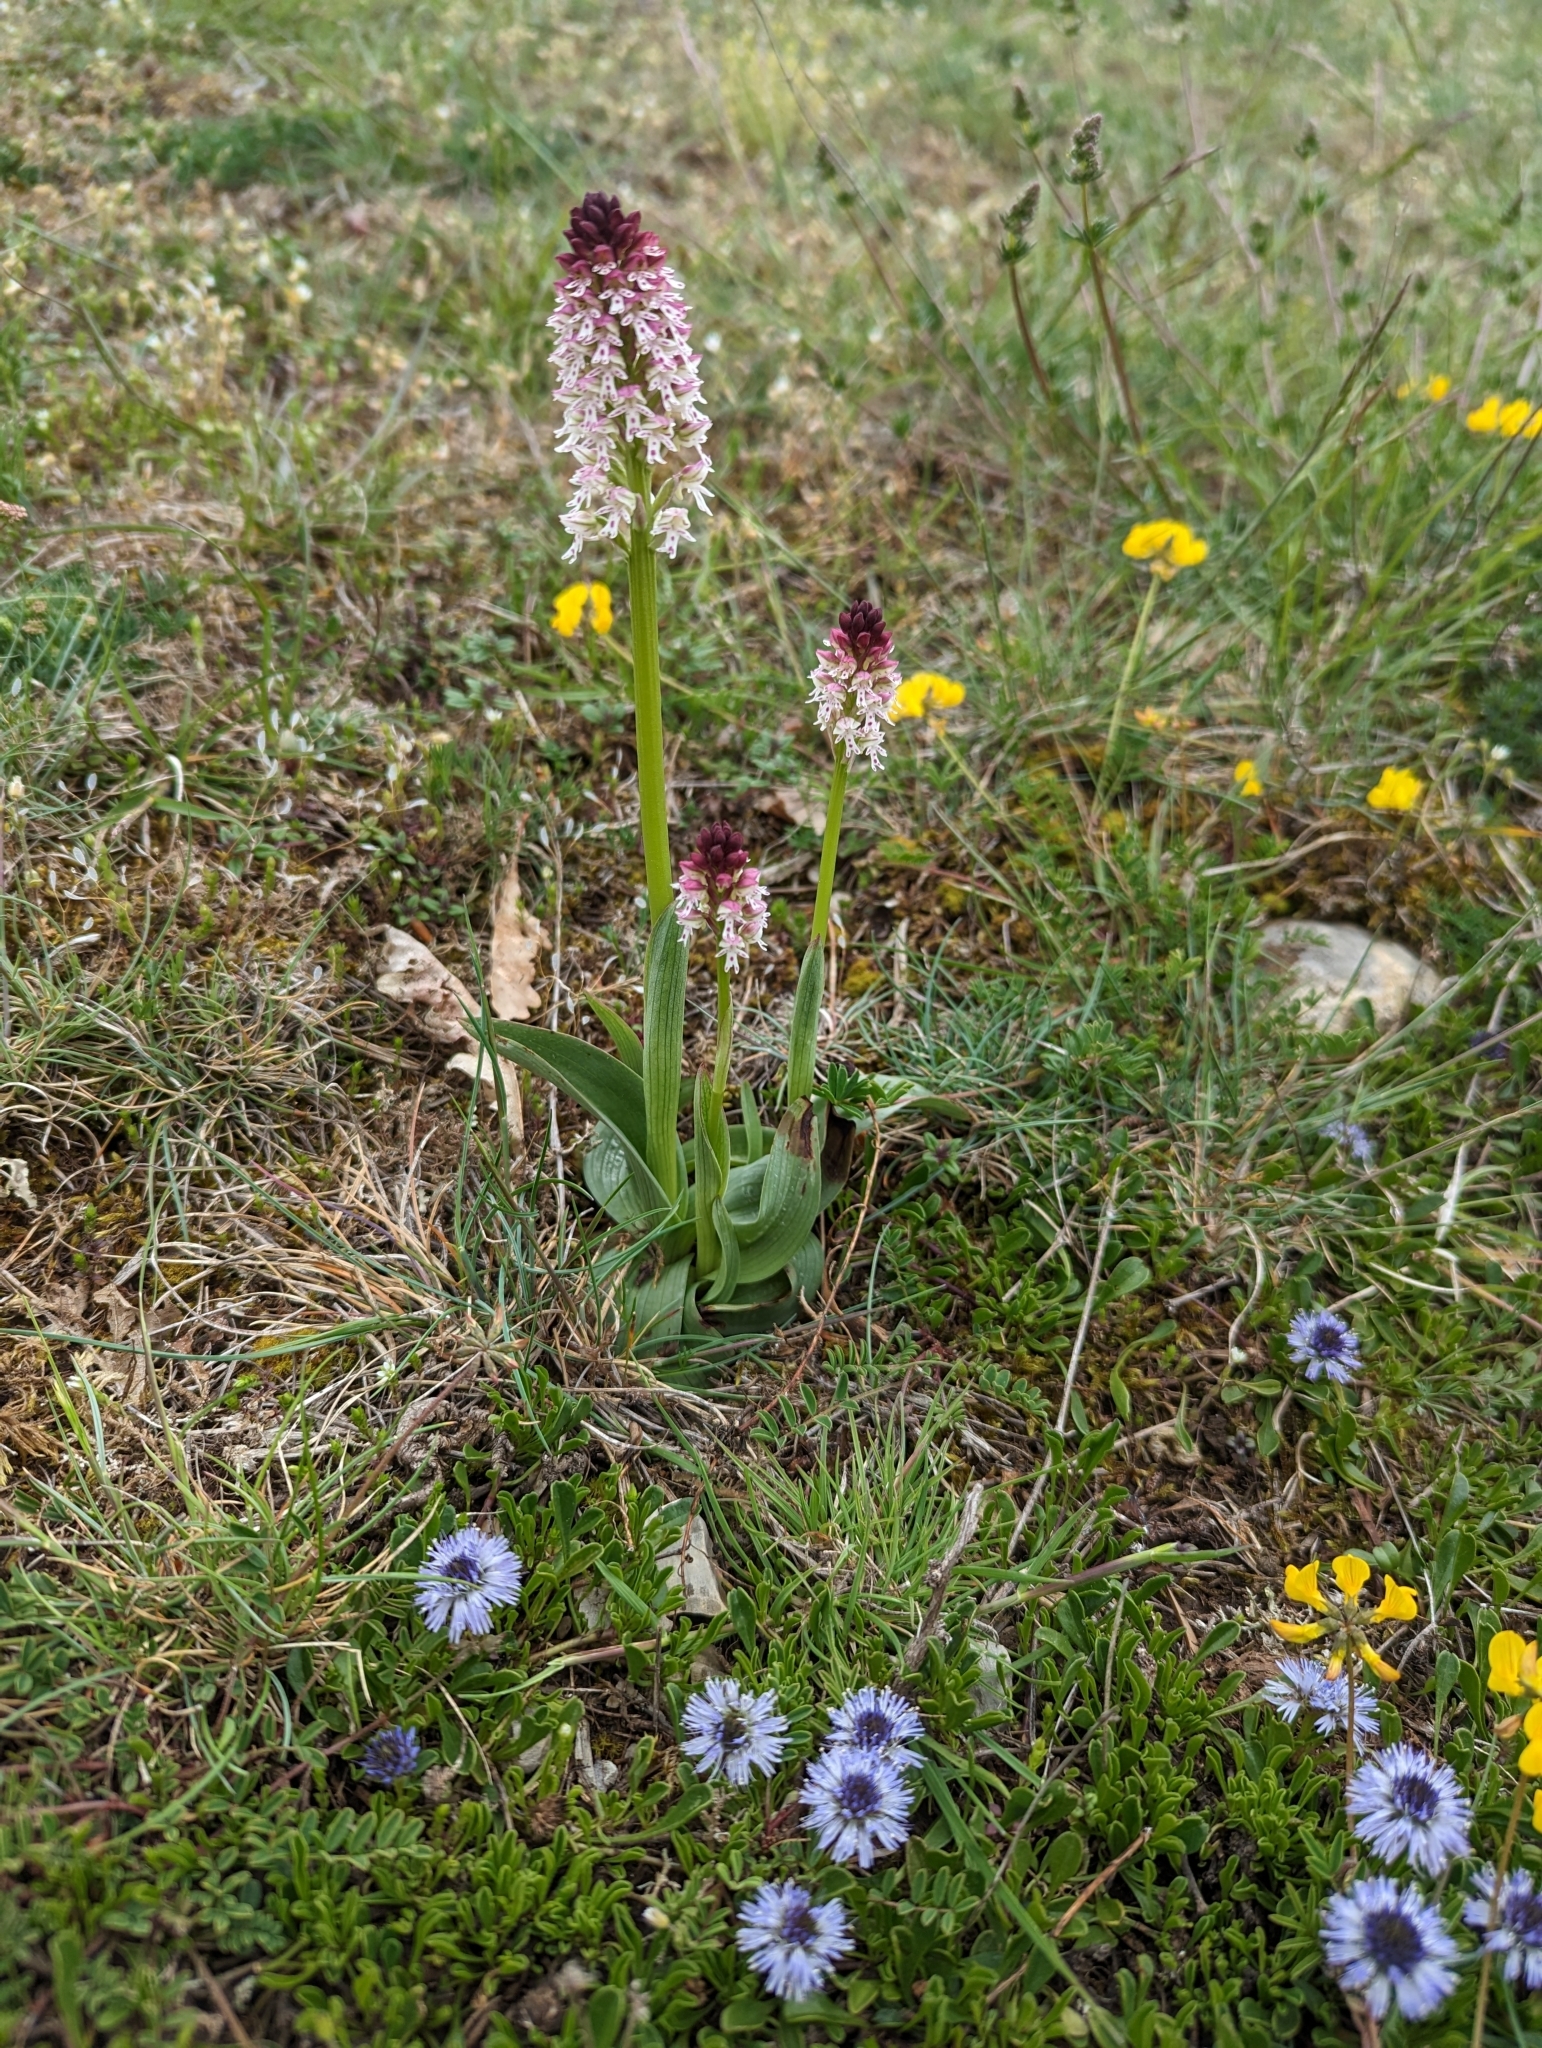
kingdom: Plantae
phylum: Tracheophyta
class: Liliopsida
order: Asparagales
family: Orchidaceae
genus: Neotinea
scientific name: Neotinea ustulata
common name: Burnt orchid
